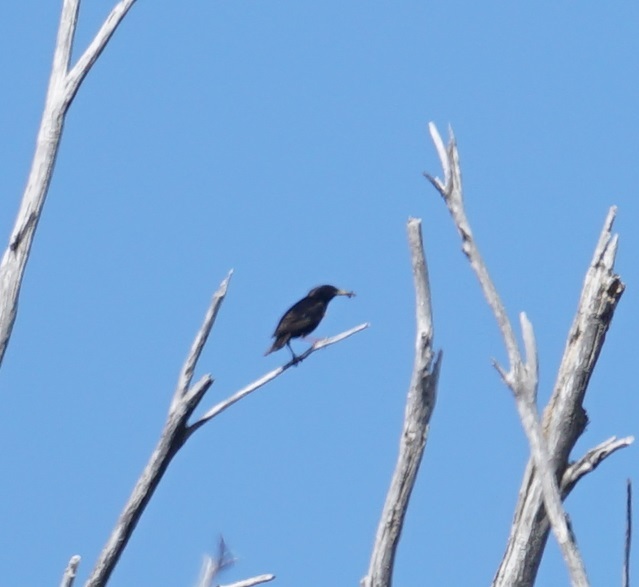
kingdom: Animalia
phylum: Chordata
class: Aves
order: Passeriformes
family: Sturnidae
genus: Sturnus
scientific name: Sturnus vulgaris
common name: Common starling
